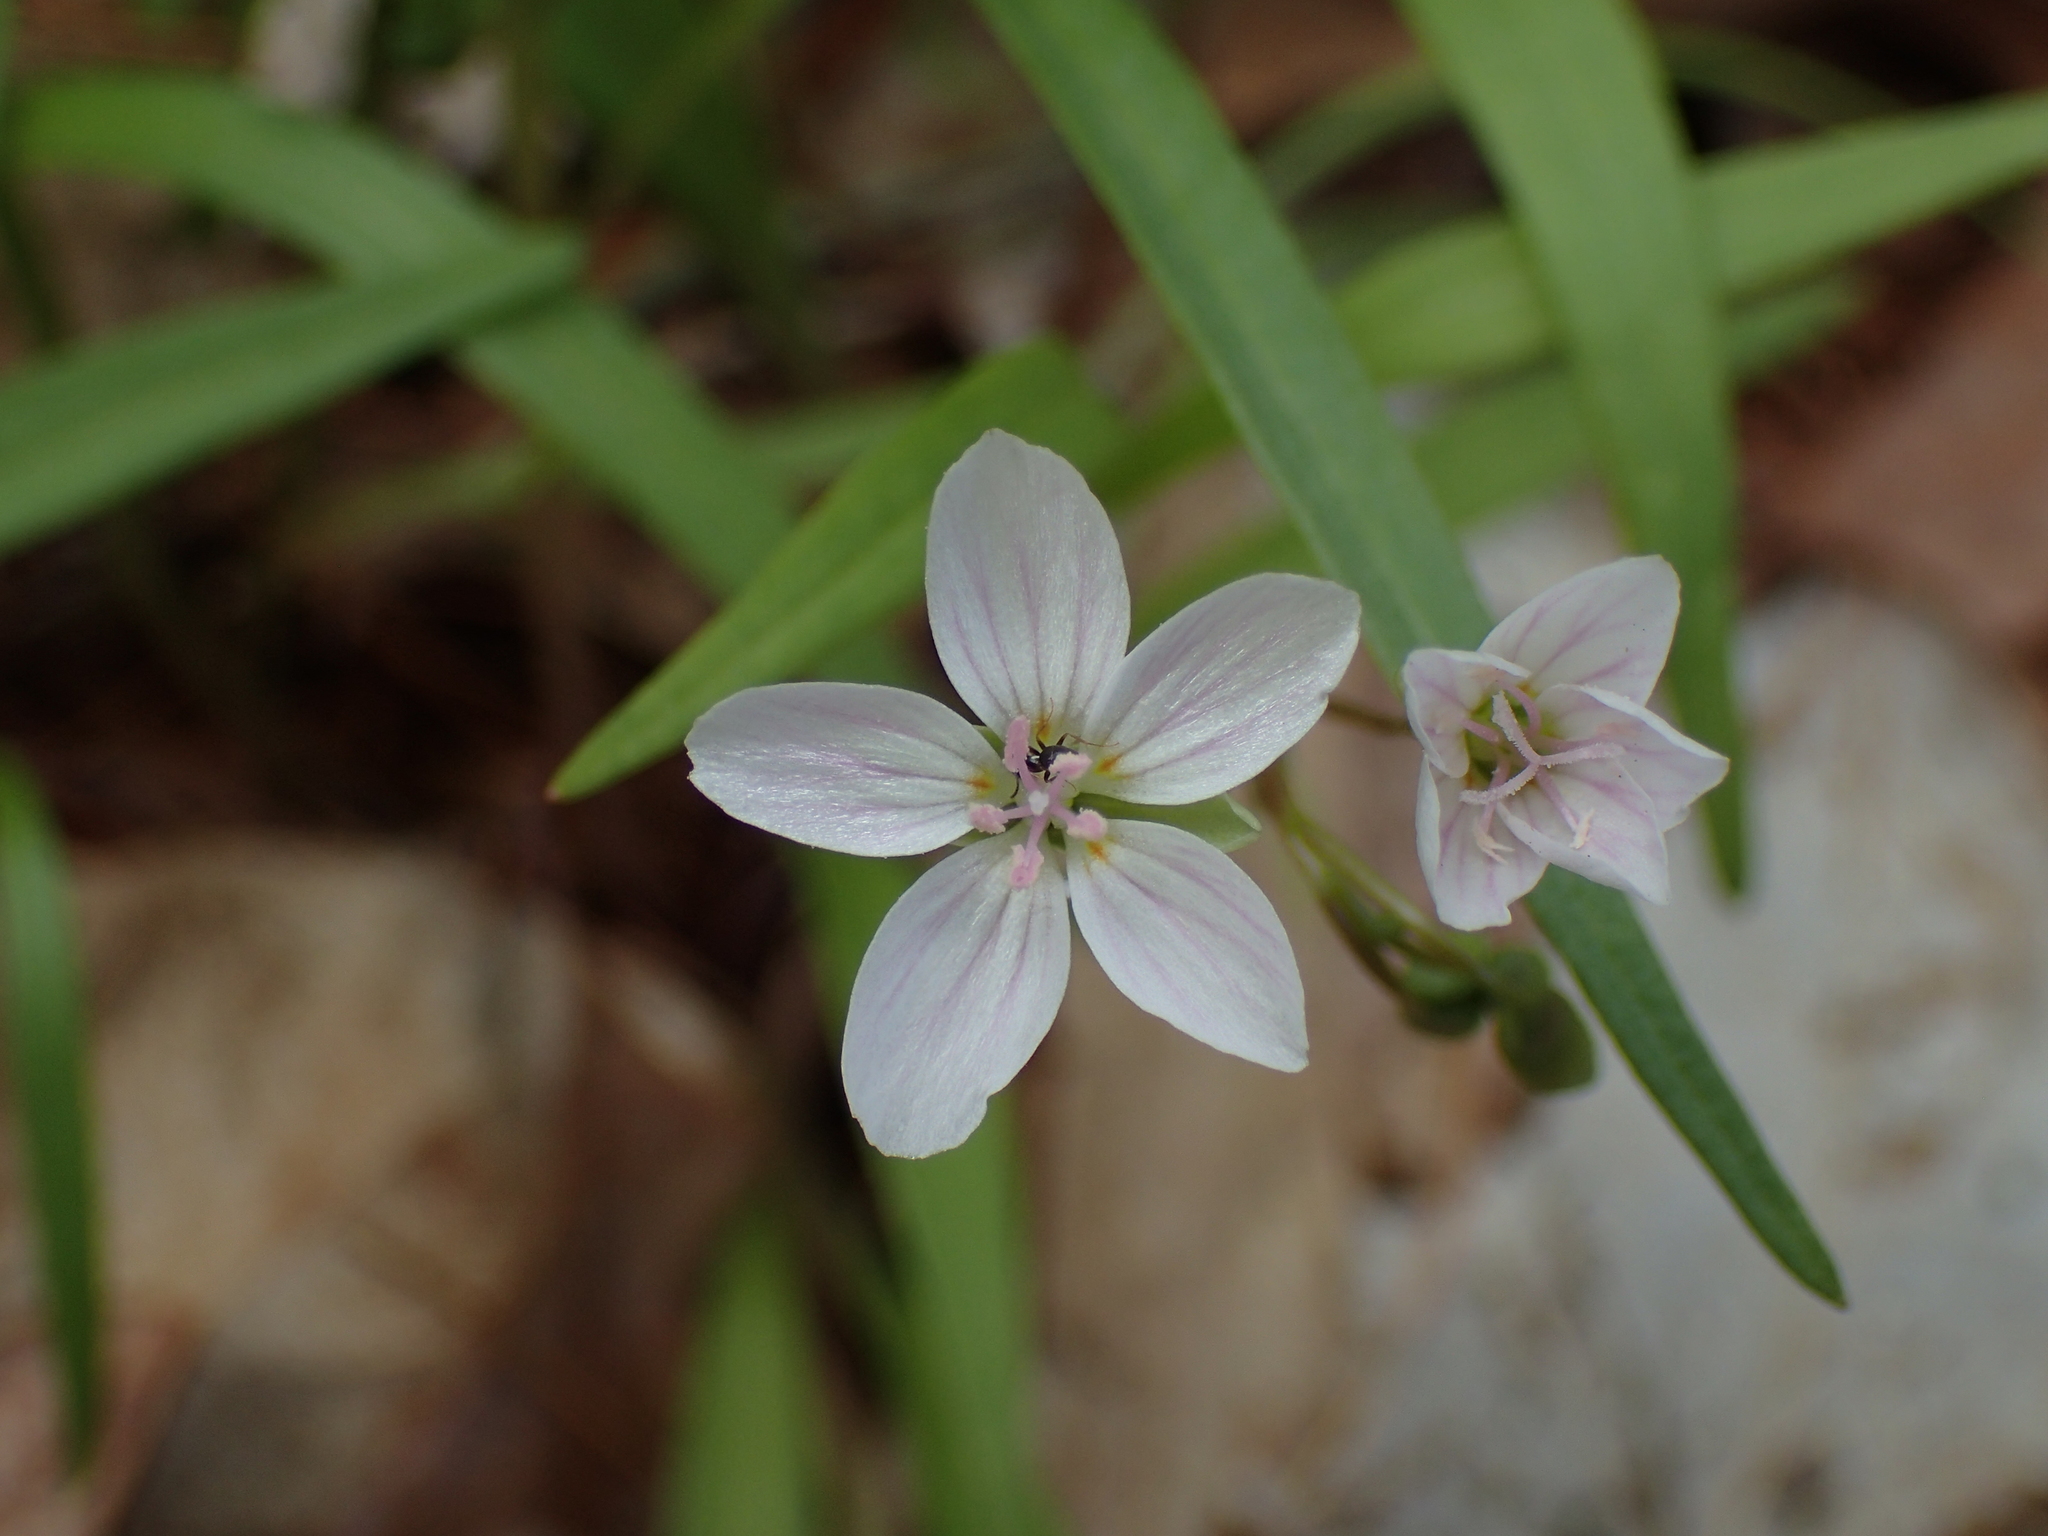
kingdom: Plantae
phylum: Tracheophyta
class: Magnoliopsida
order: Caryophyllales
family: Montiaceae
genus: Claytonia
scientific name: Claytonia virginica
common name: Virginia springbeauty
